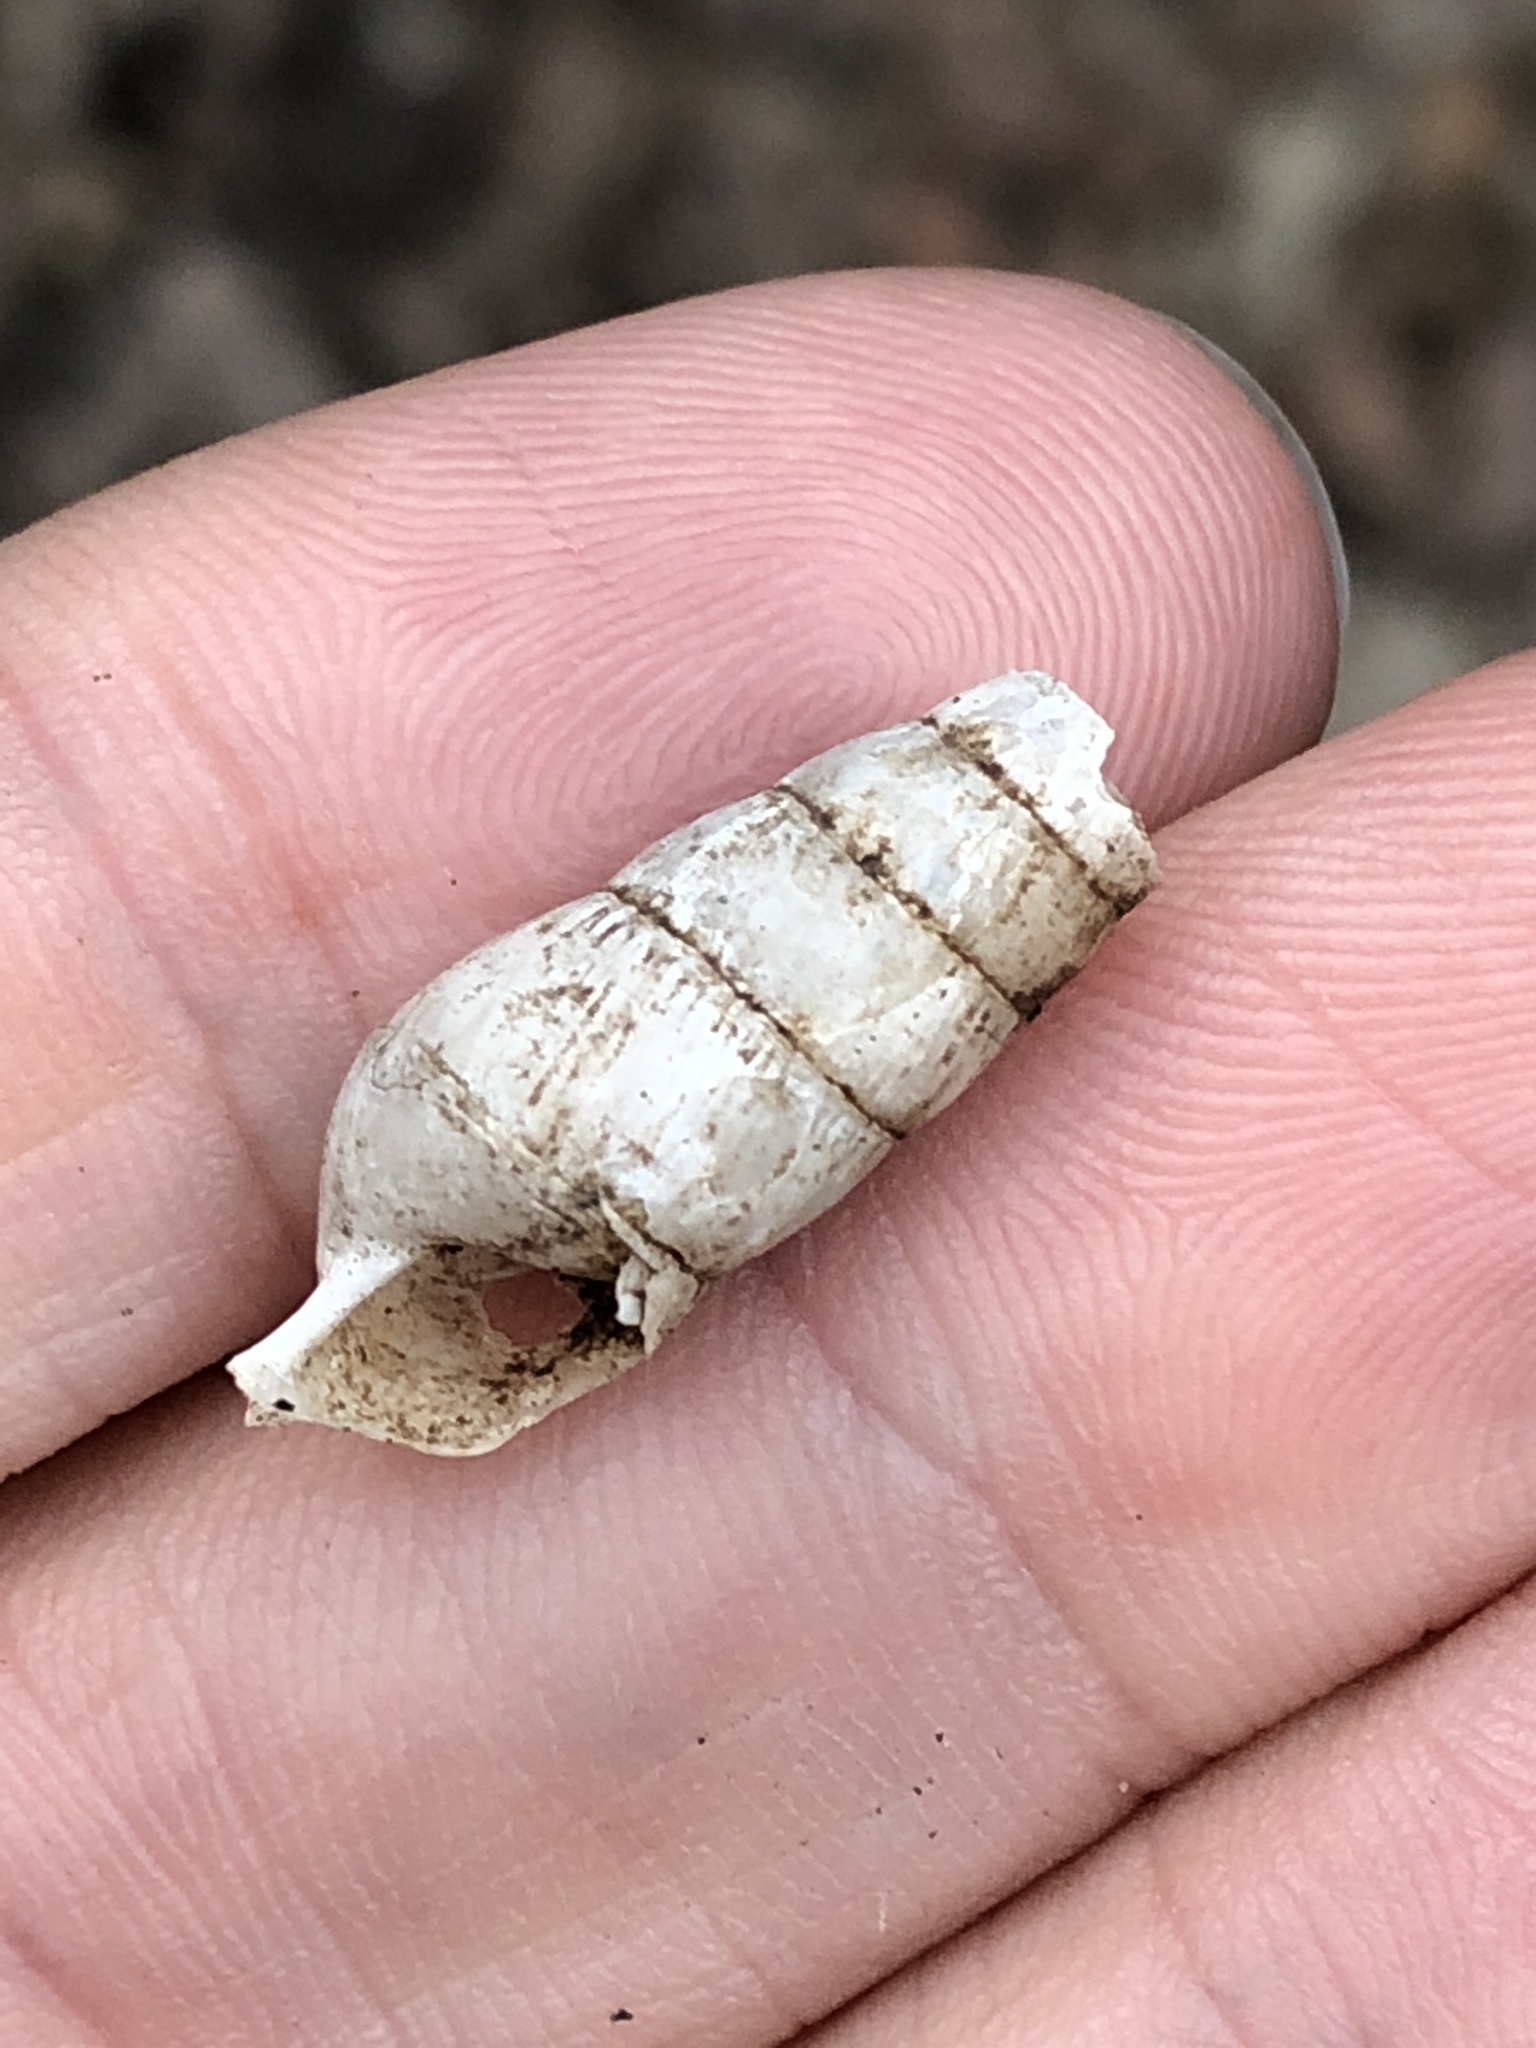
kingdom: Animalia
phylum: Mollusca
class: Gastropoda
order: Stylommatophora
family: Achatinidae
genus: Rumina
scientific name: Rumina decollata
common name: Decollate snail
